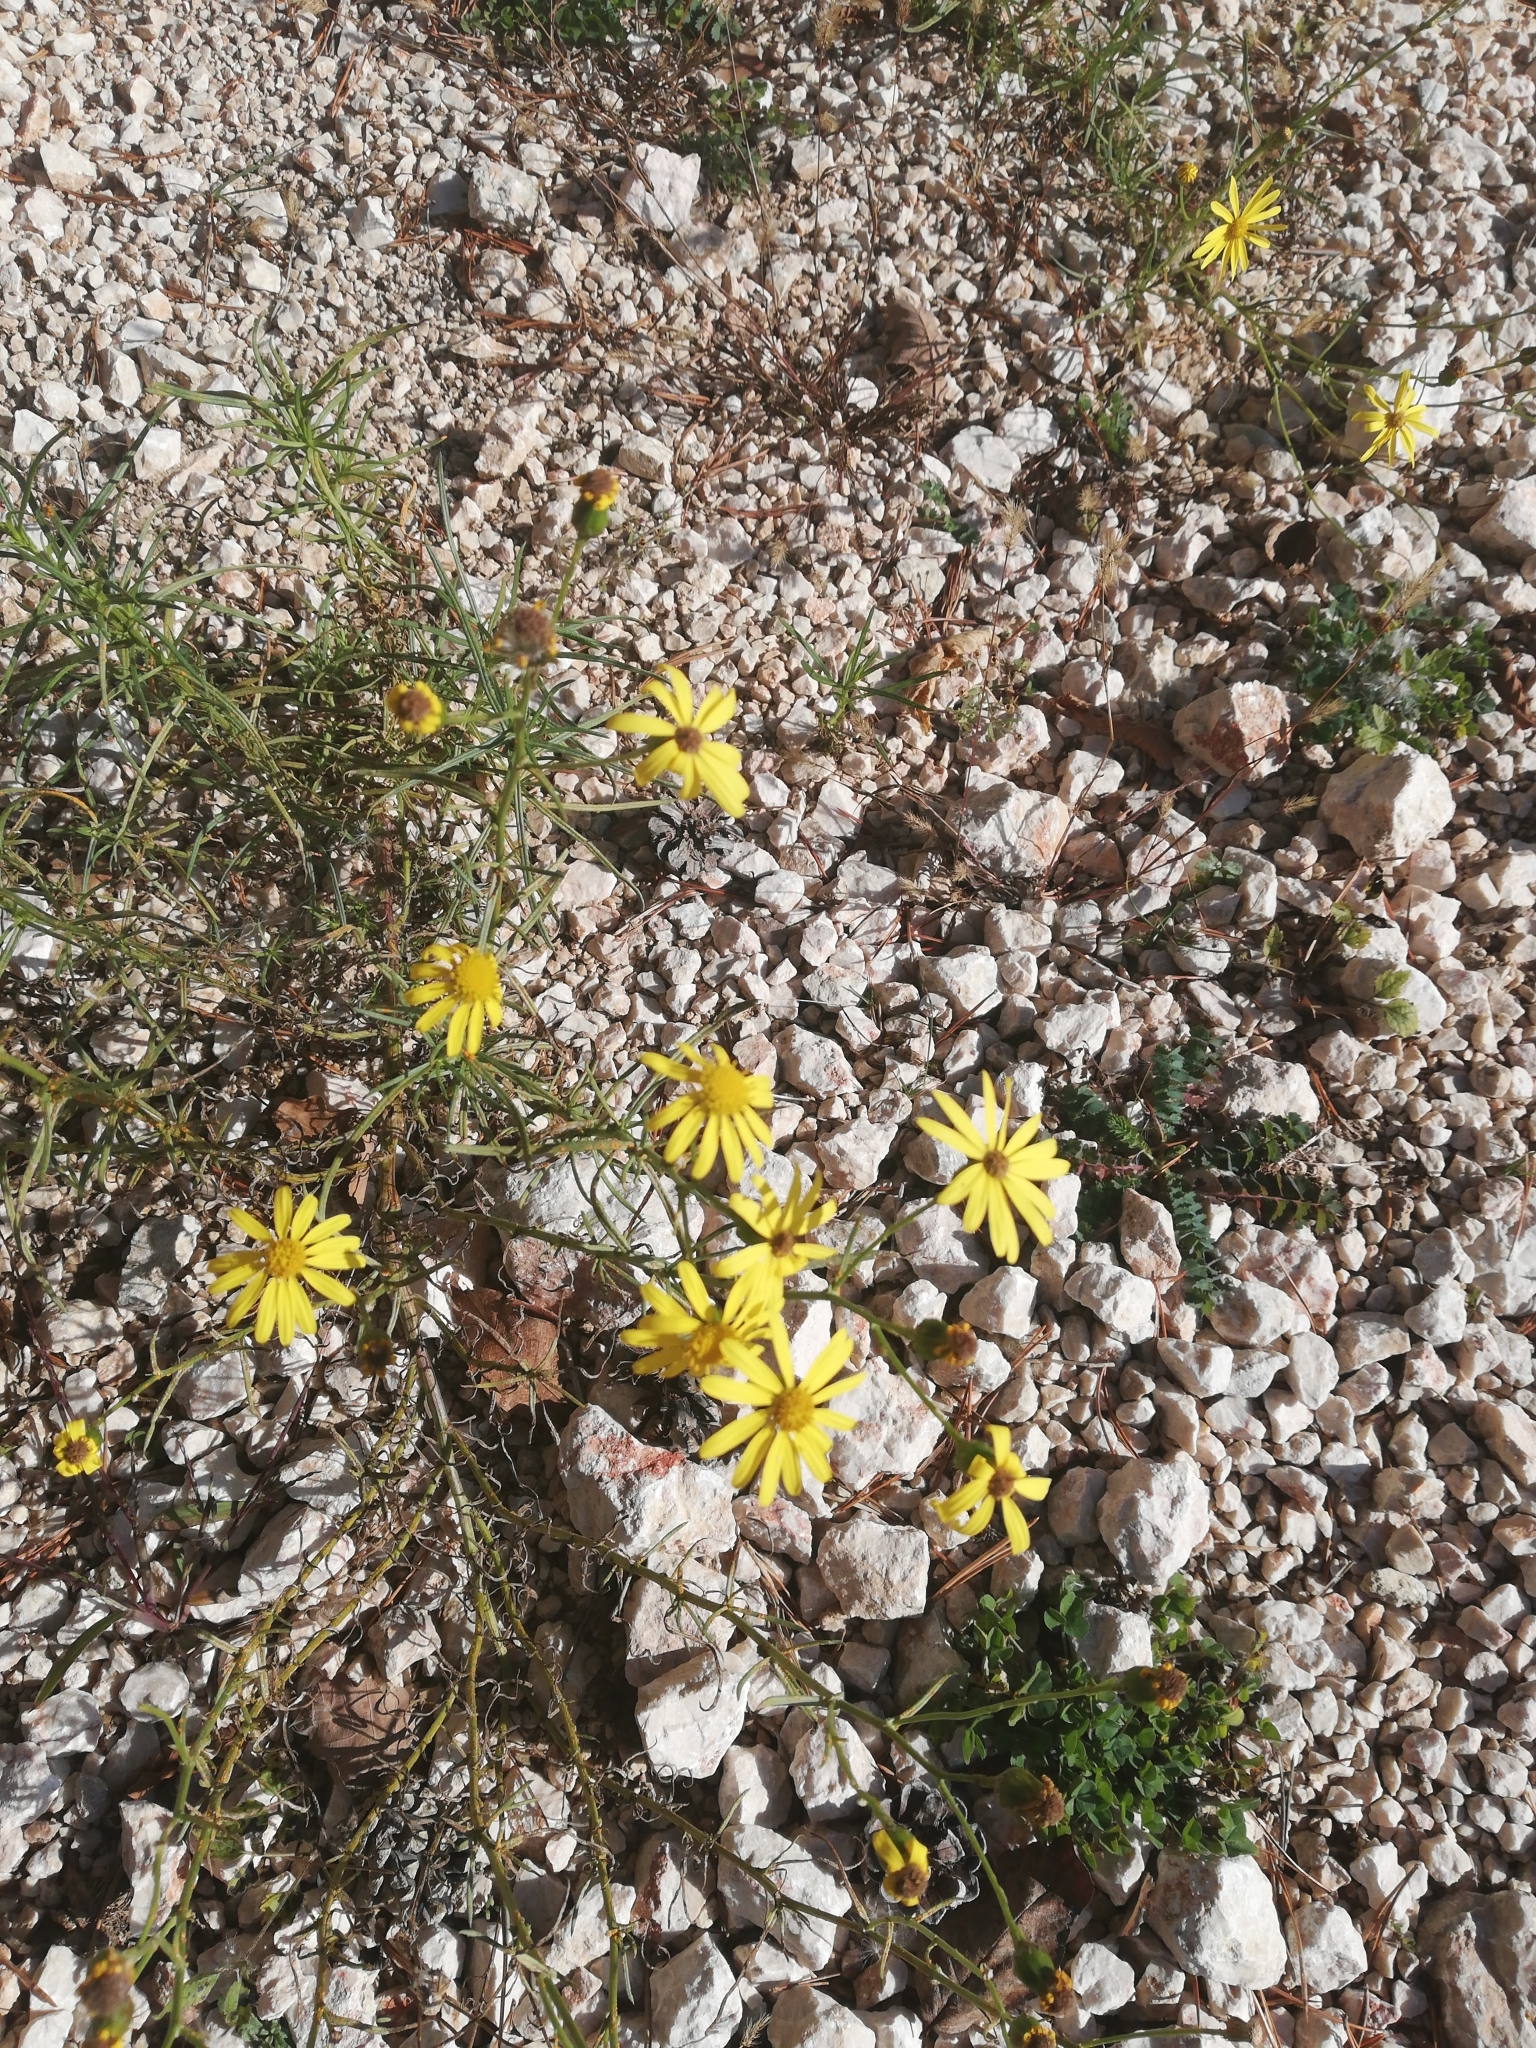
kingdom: Plantae
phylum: Tracheophyta
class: Magnoliopsida
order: Asterales
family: Asteraceae
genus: Senecio
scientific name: Senecio inaequidens
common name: Narrow-leaved ragwort
